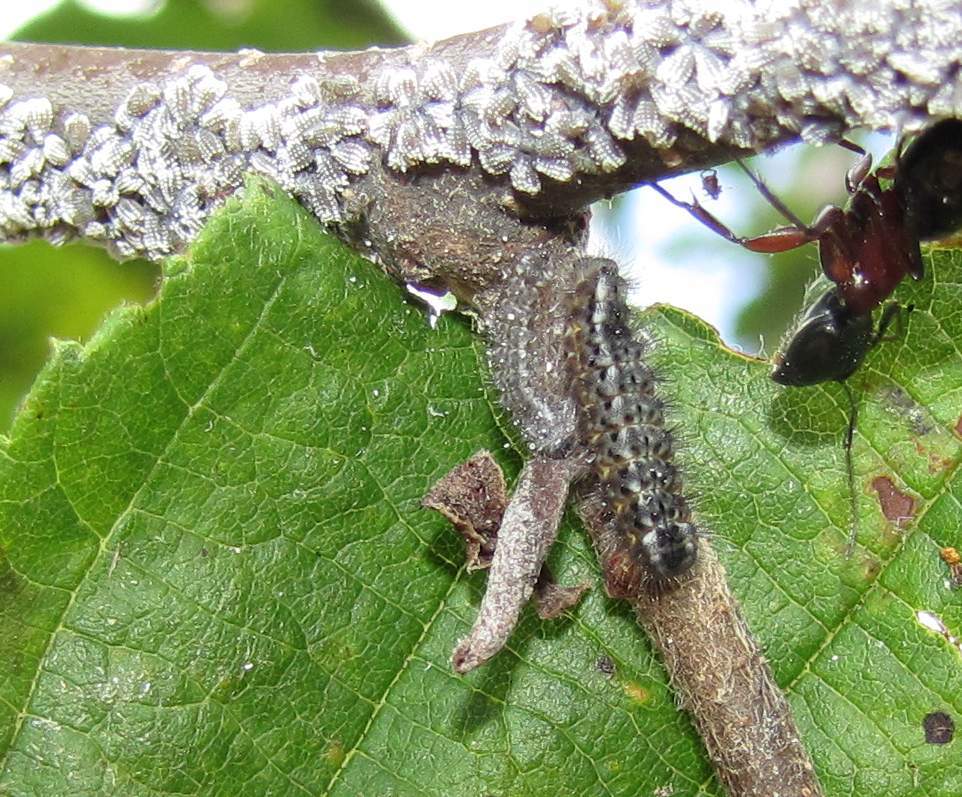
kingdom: Animalia
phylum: Arthropoda
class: Insecta
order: Lepidoptera
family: Lycaenidae
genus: Feniseca
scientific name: Feniseca tarquinius
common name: Harvester
